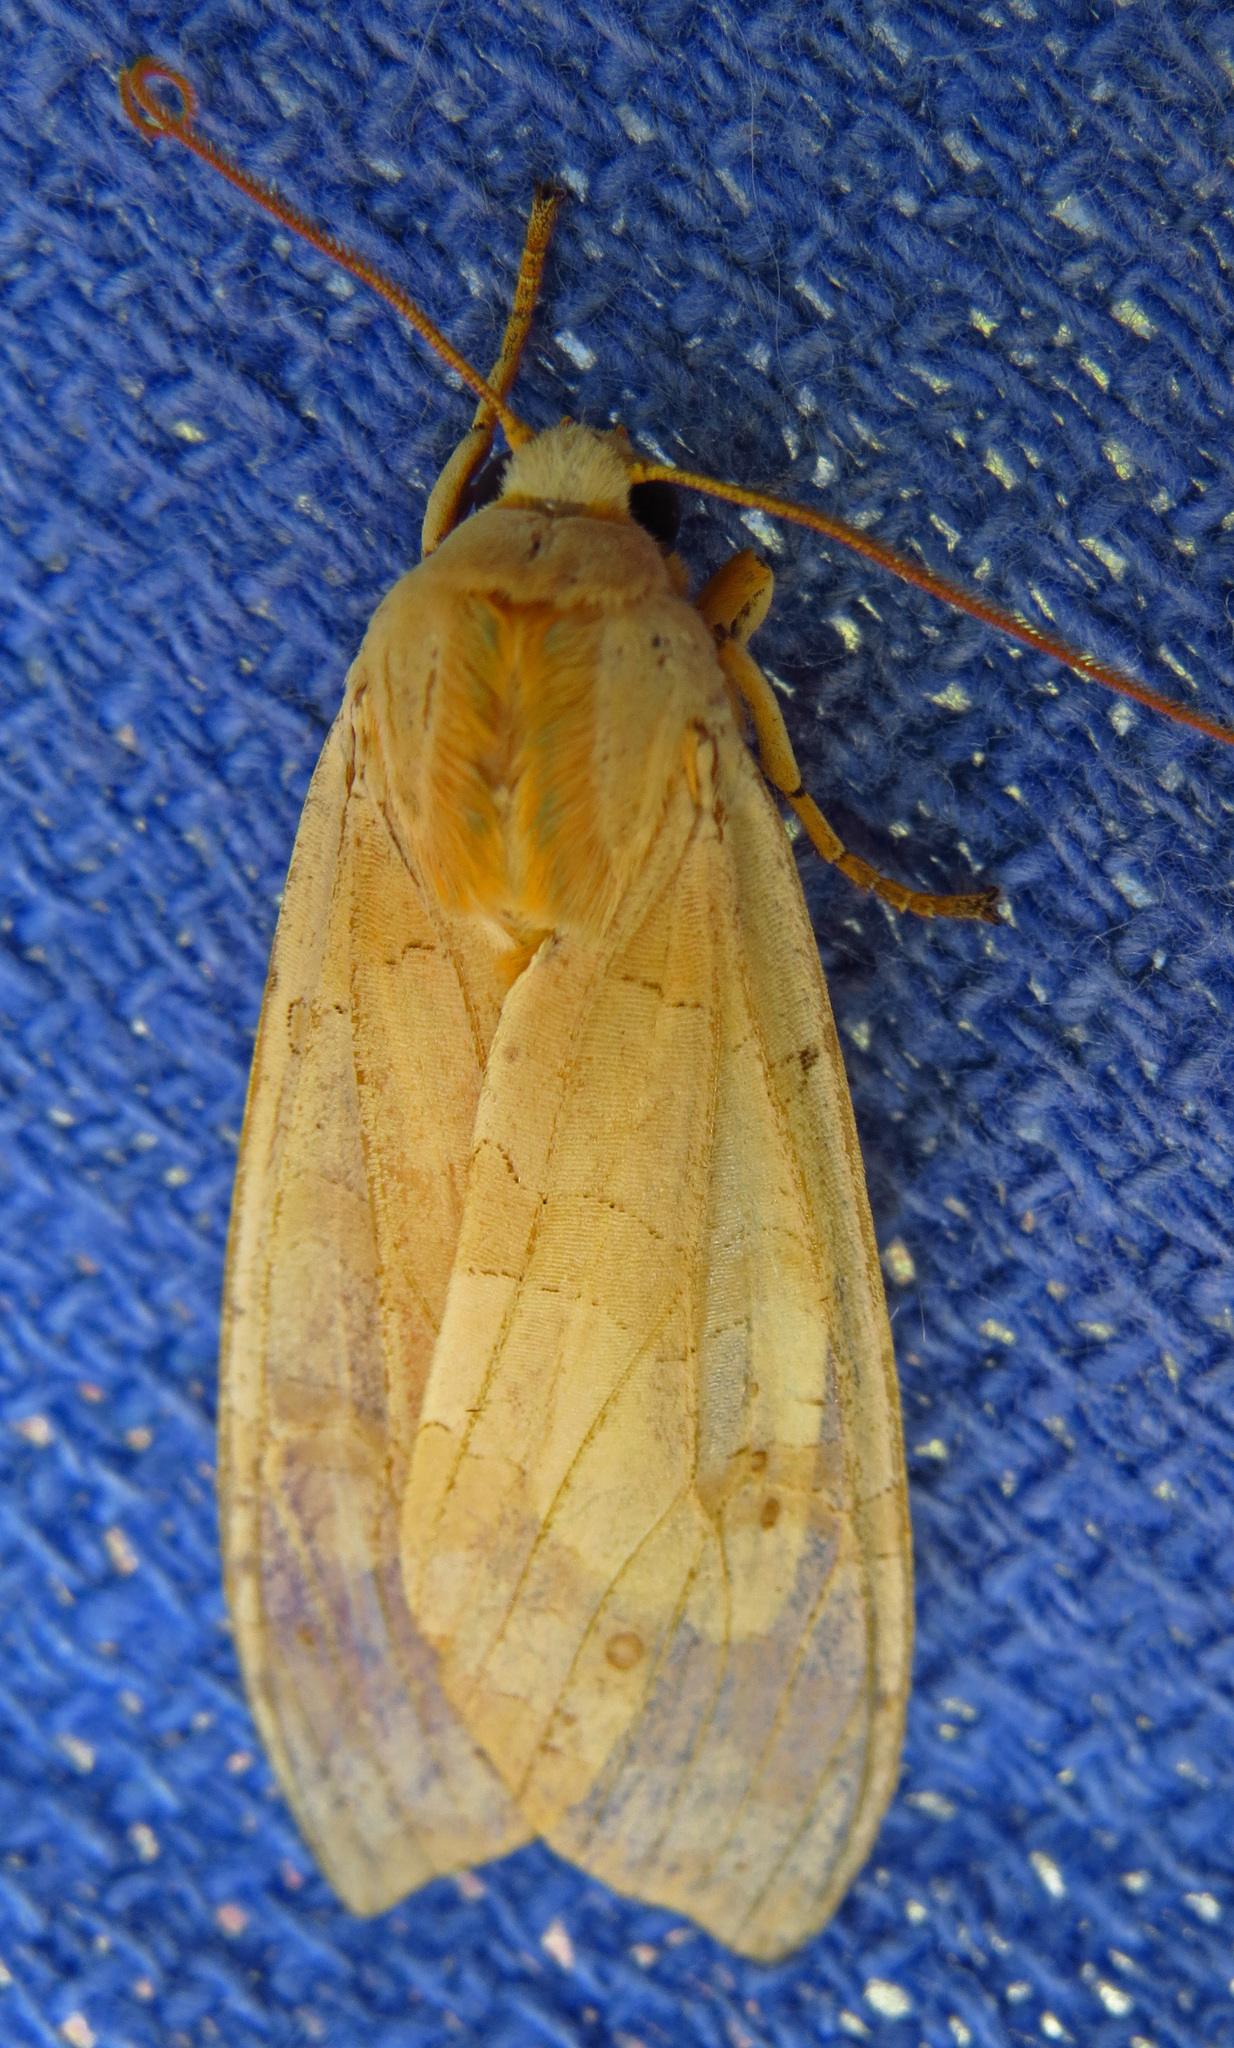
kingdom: Animalia
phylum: Arthropoda
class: Insecta
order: Lepidoptera
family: Erebidae
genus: Halysidota
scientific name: Halysidota
